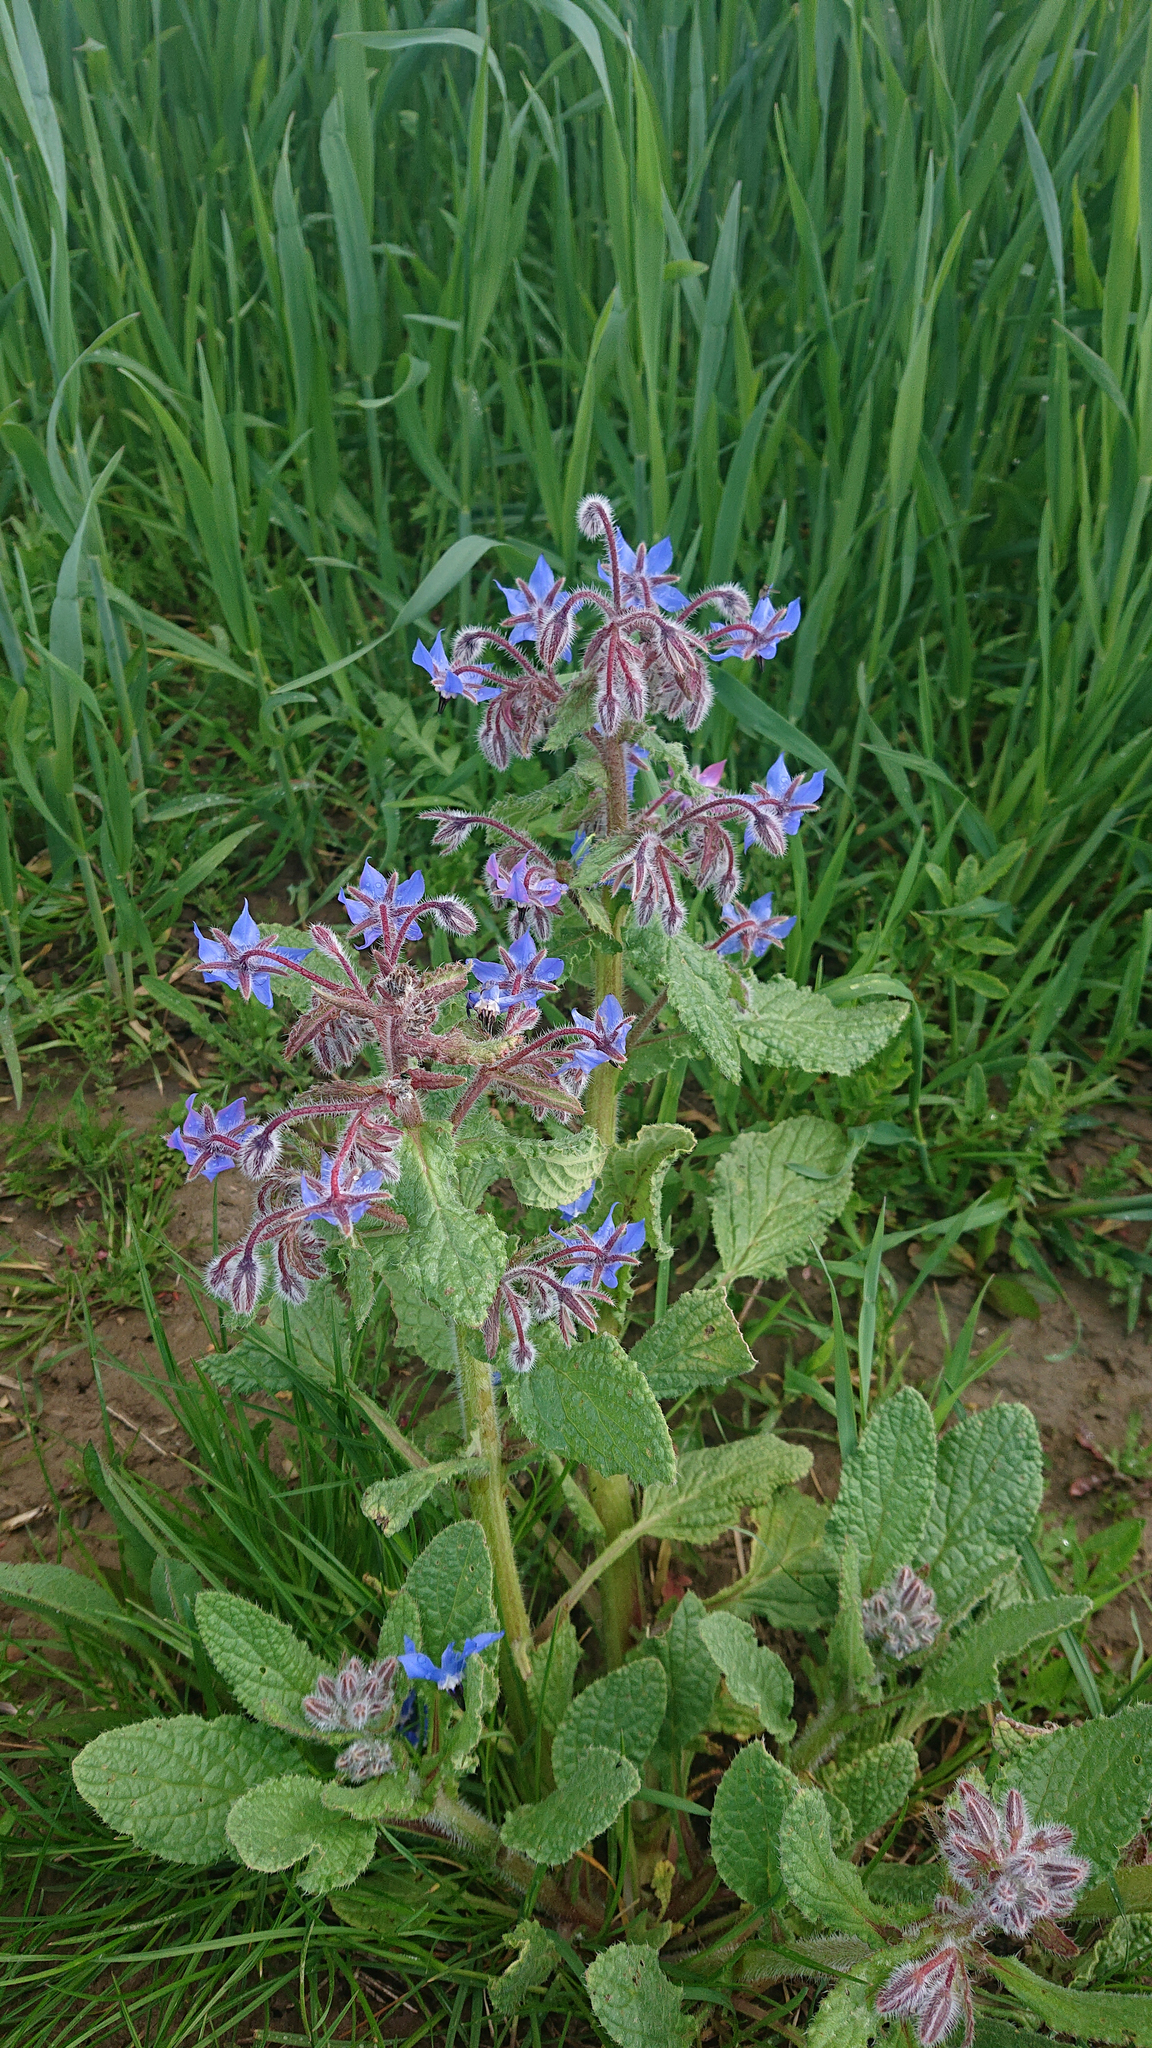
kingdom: Plantae
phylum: Tracheophyta
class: Magnoliopsida
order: Boraginales
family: Boraginaceae
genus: Borago
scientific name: Borago officinalis
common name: Borage
